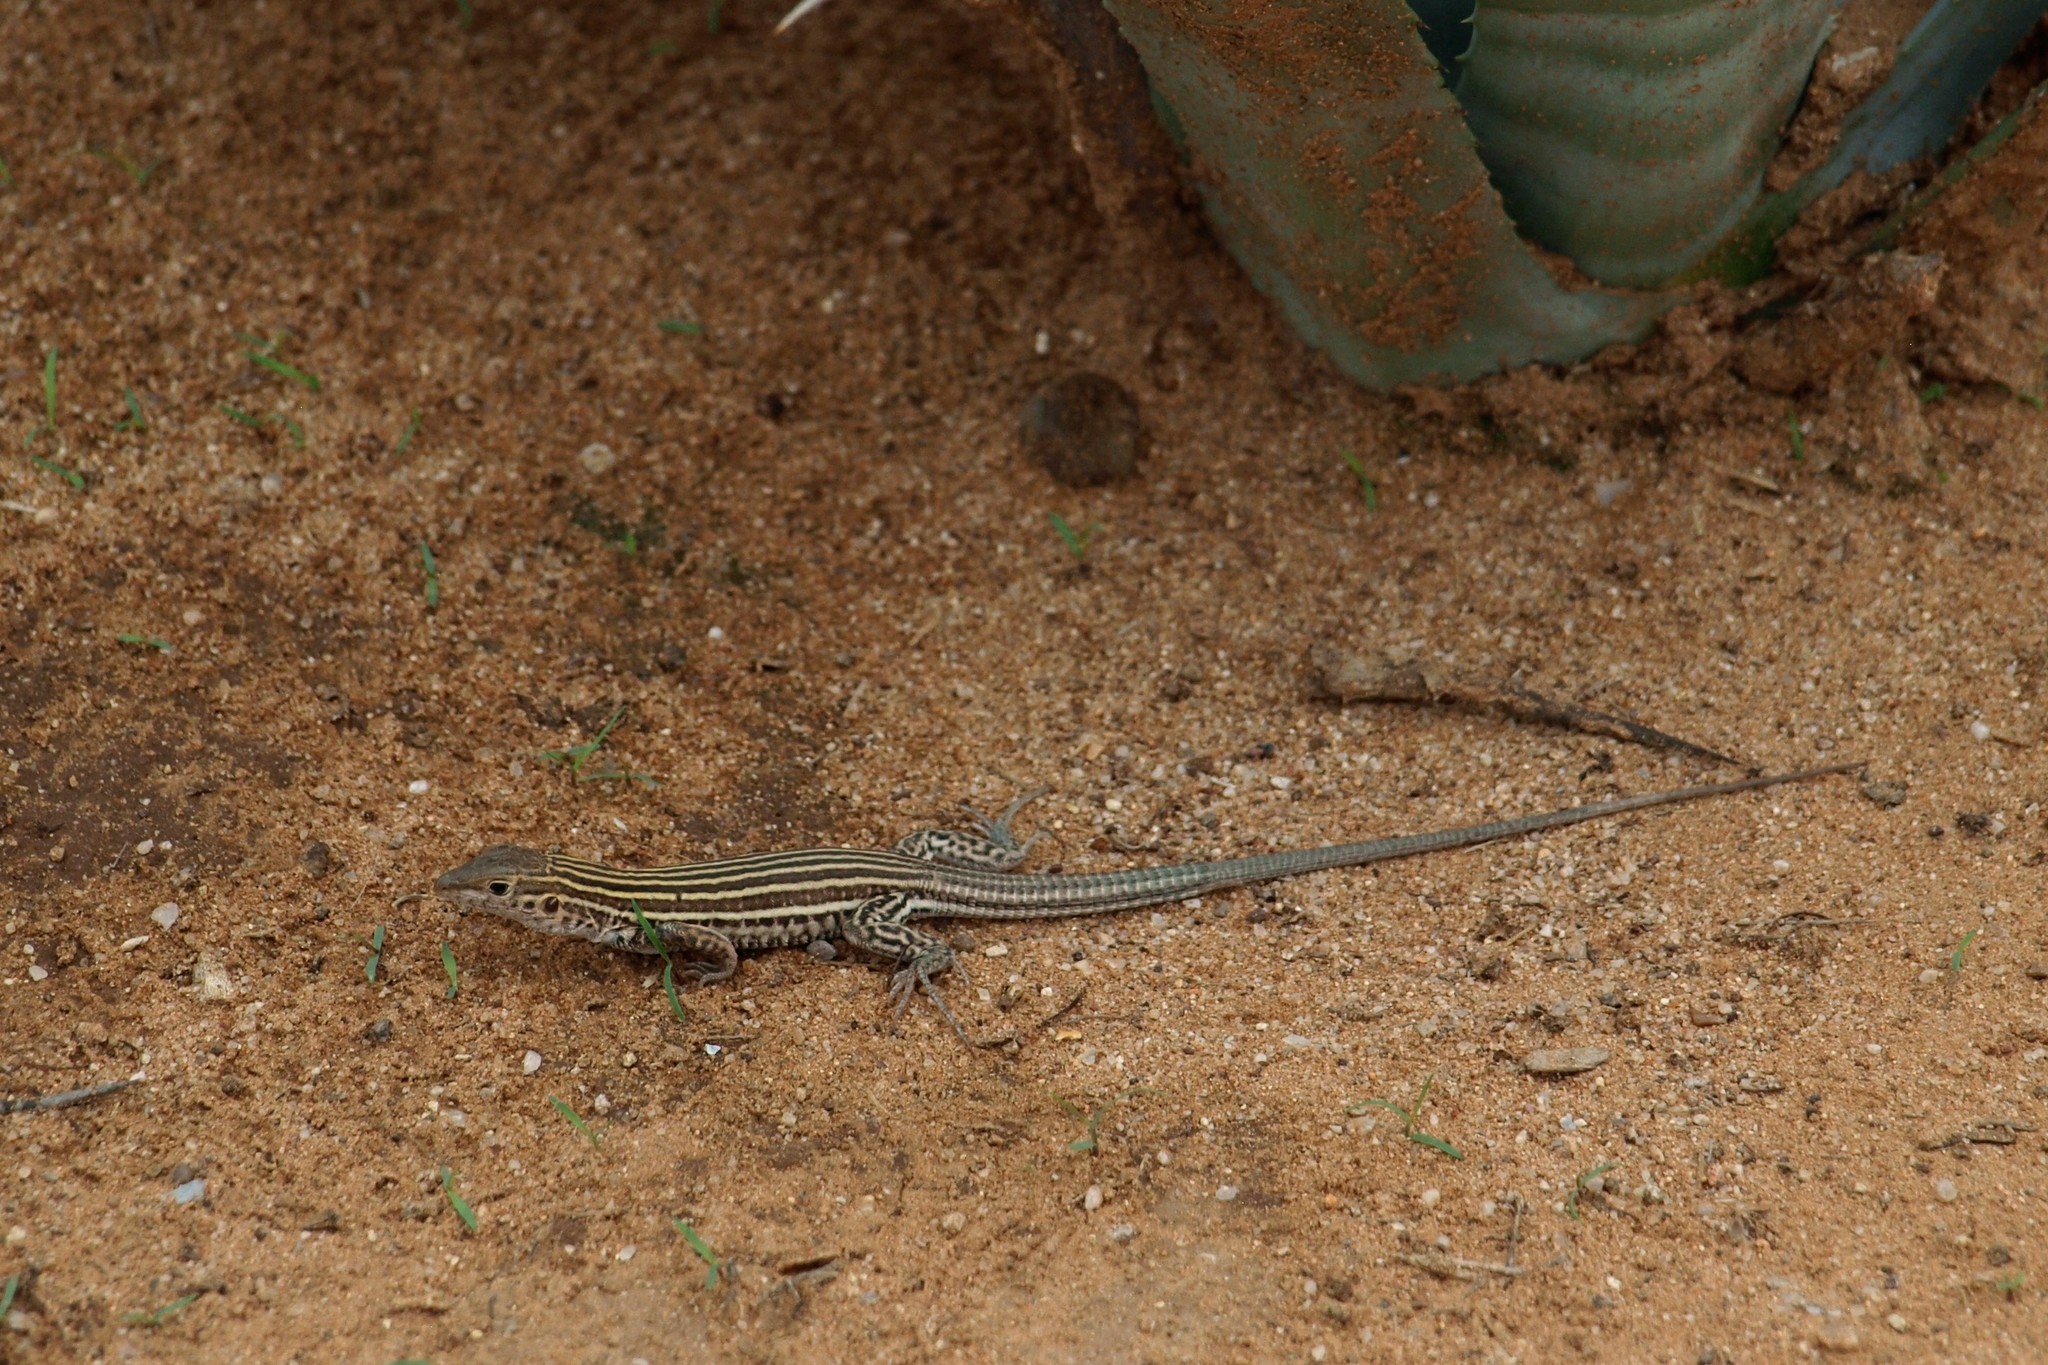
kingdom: Animalia
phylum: Chordata
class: Squamata
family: Teiidae
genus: Aspidoscelis
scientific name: Aspidoscelis stictogrammus
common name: Giant spotted whiptail
